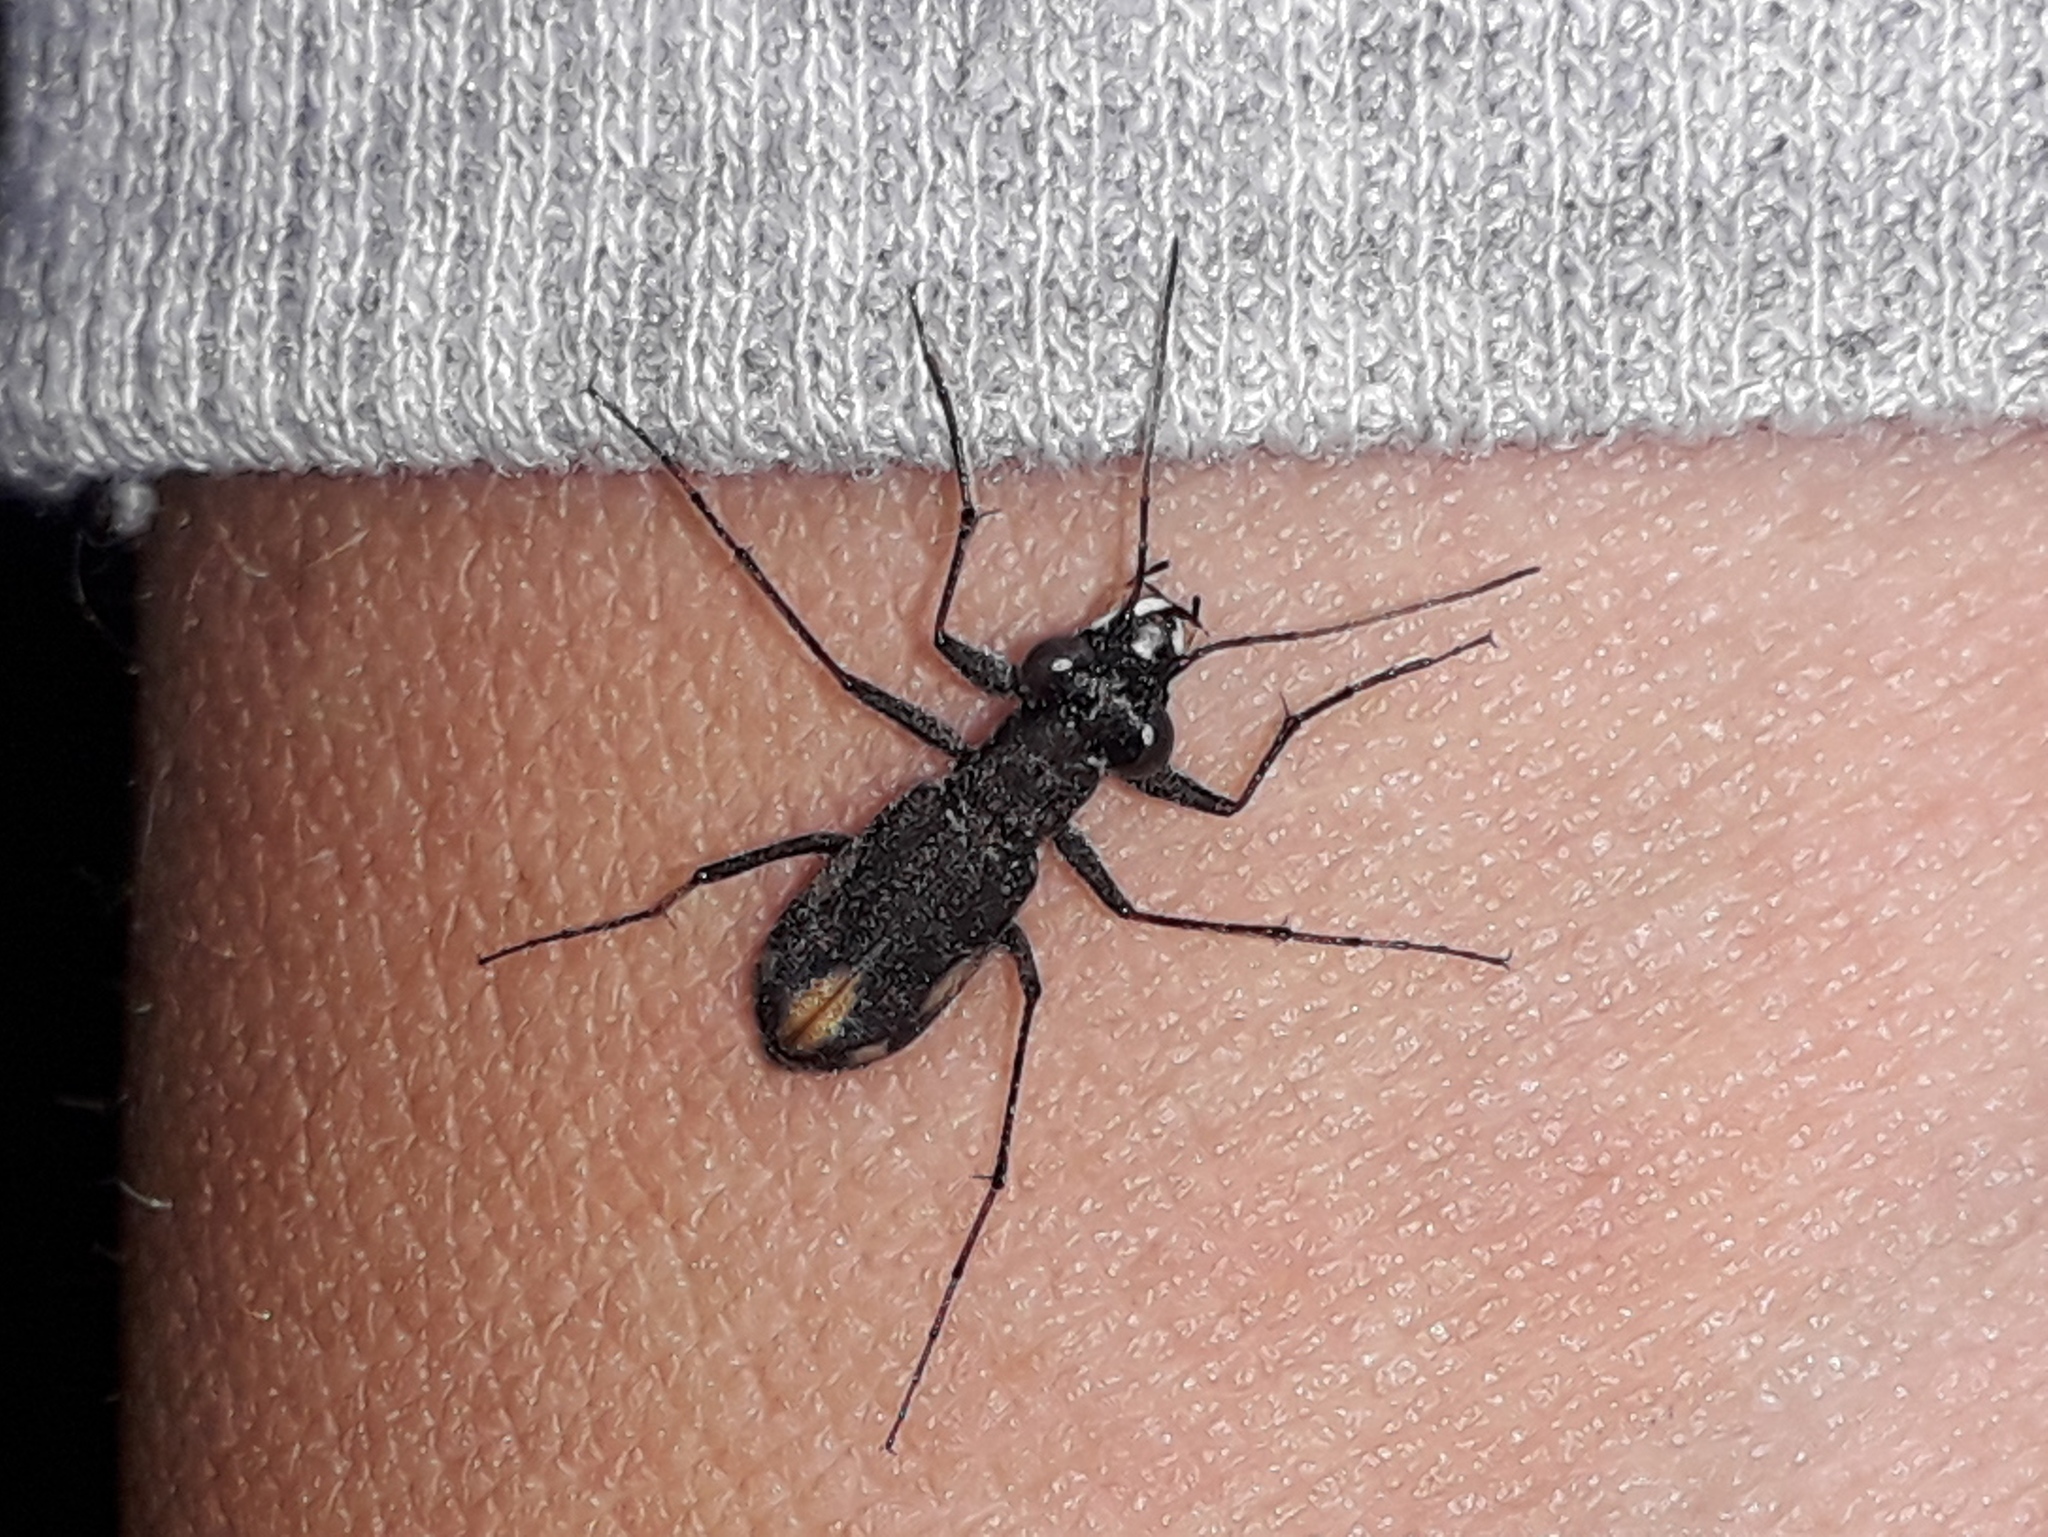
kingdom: Animalia
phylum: Arthropoda
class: Insecta
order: Coleoptera
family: Carabidae
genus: Cylindera
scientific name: Cylindera gracilis
